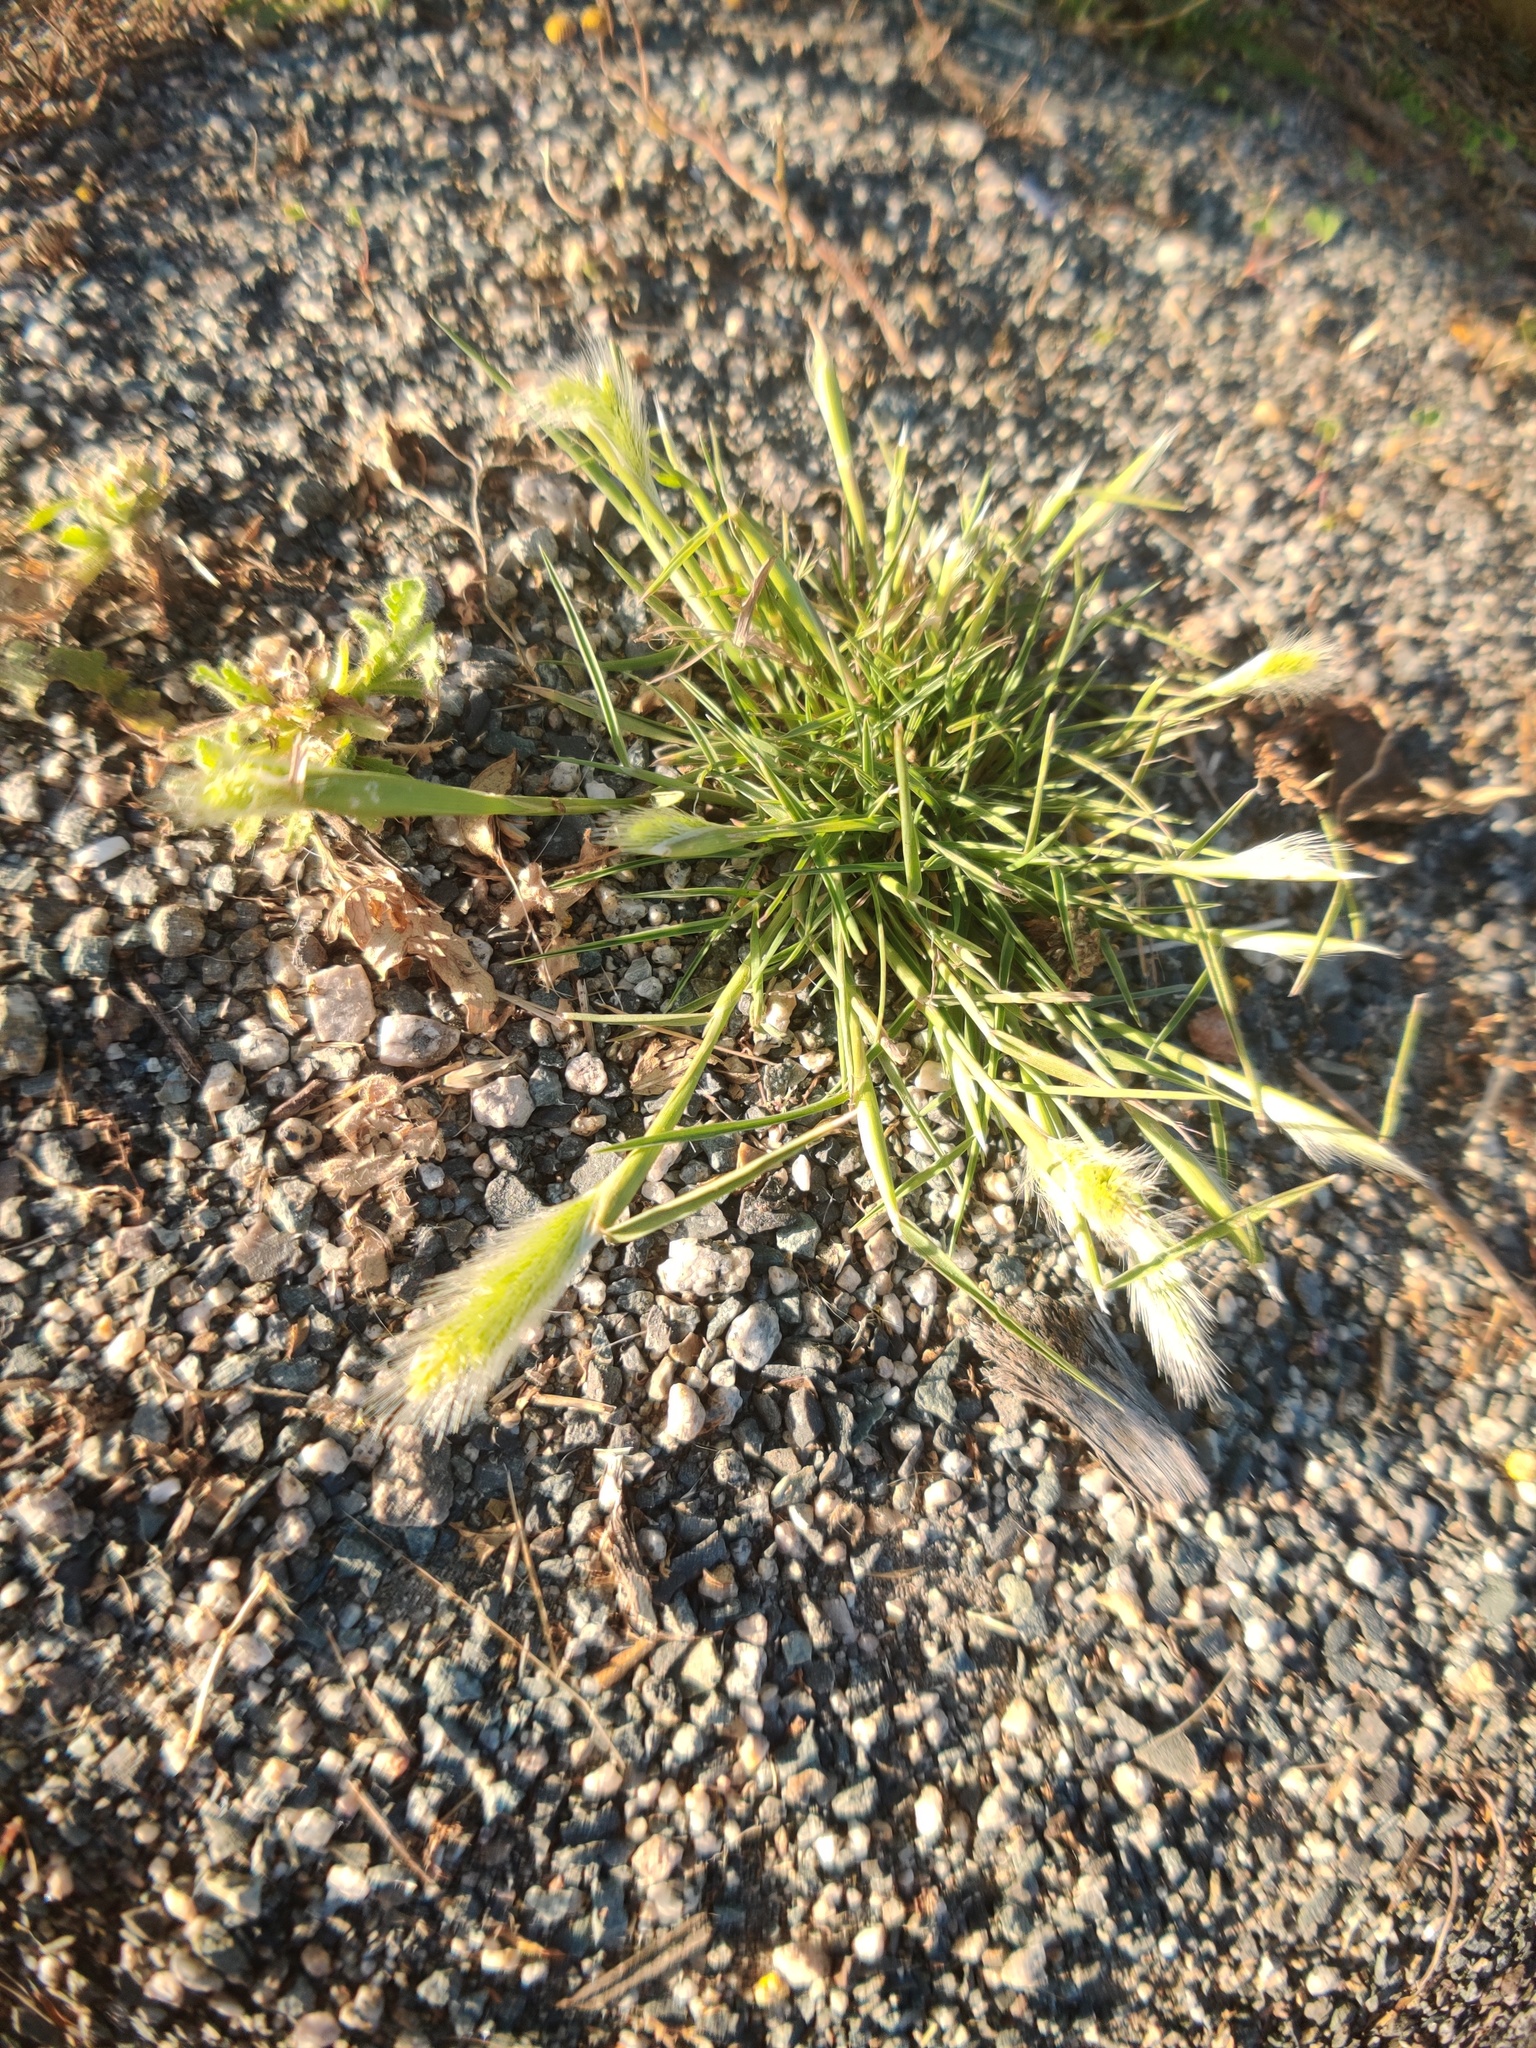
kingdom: Plantae
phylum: Tracheophyta
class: Liliopsida
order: Poales
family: Poaceae
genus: Polypogon
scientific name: Polypogon monspeliensis
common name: Annual rabbitsfoot grass
